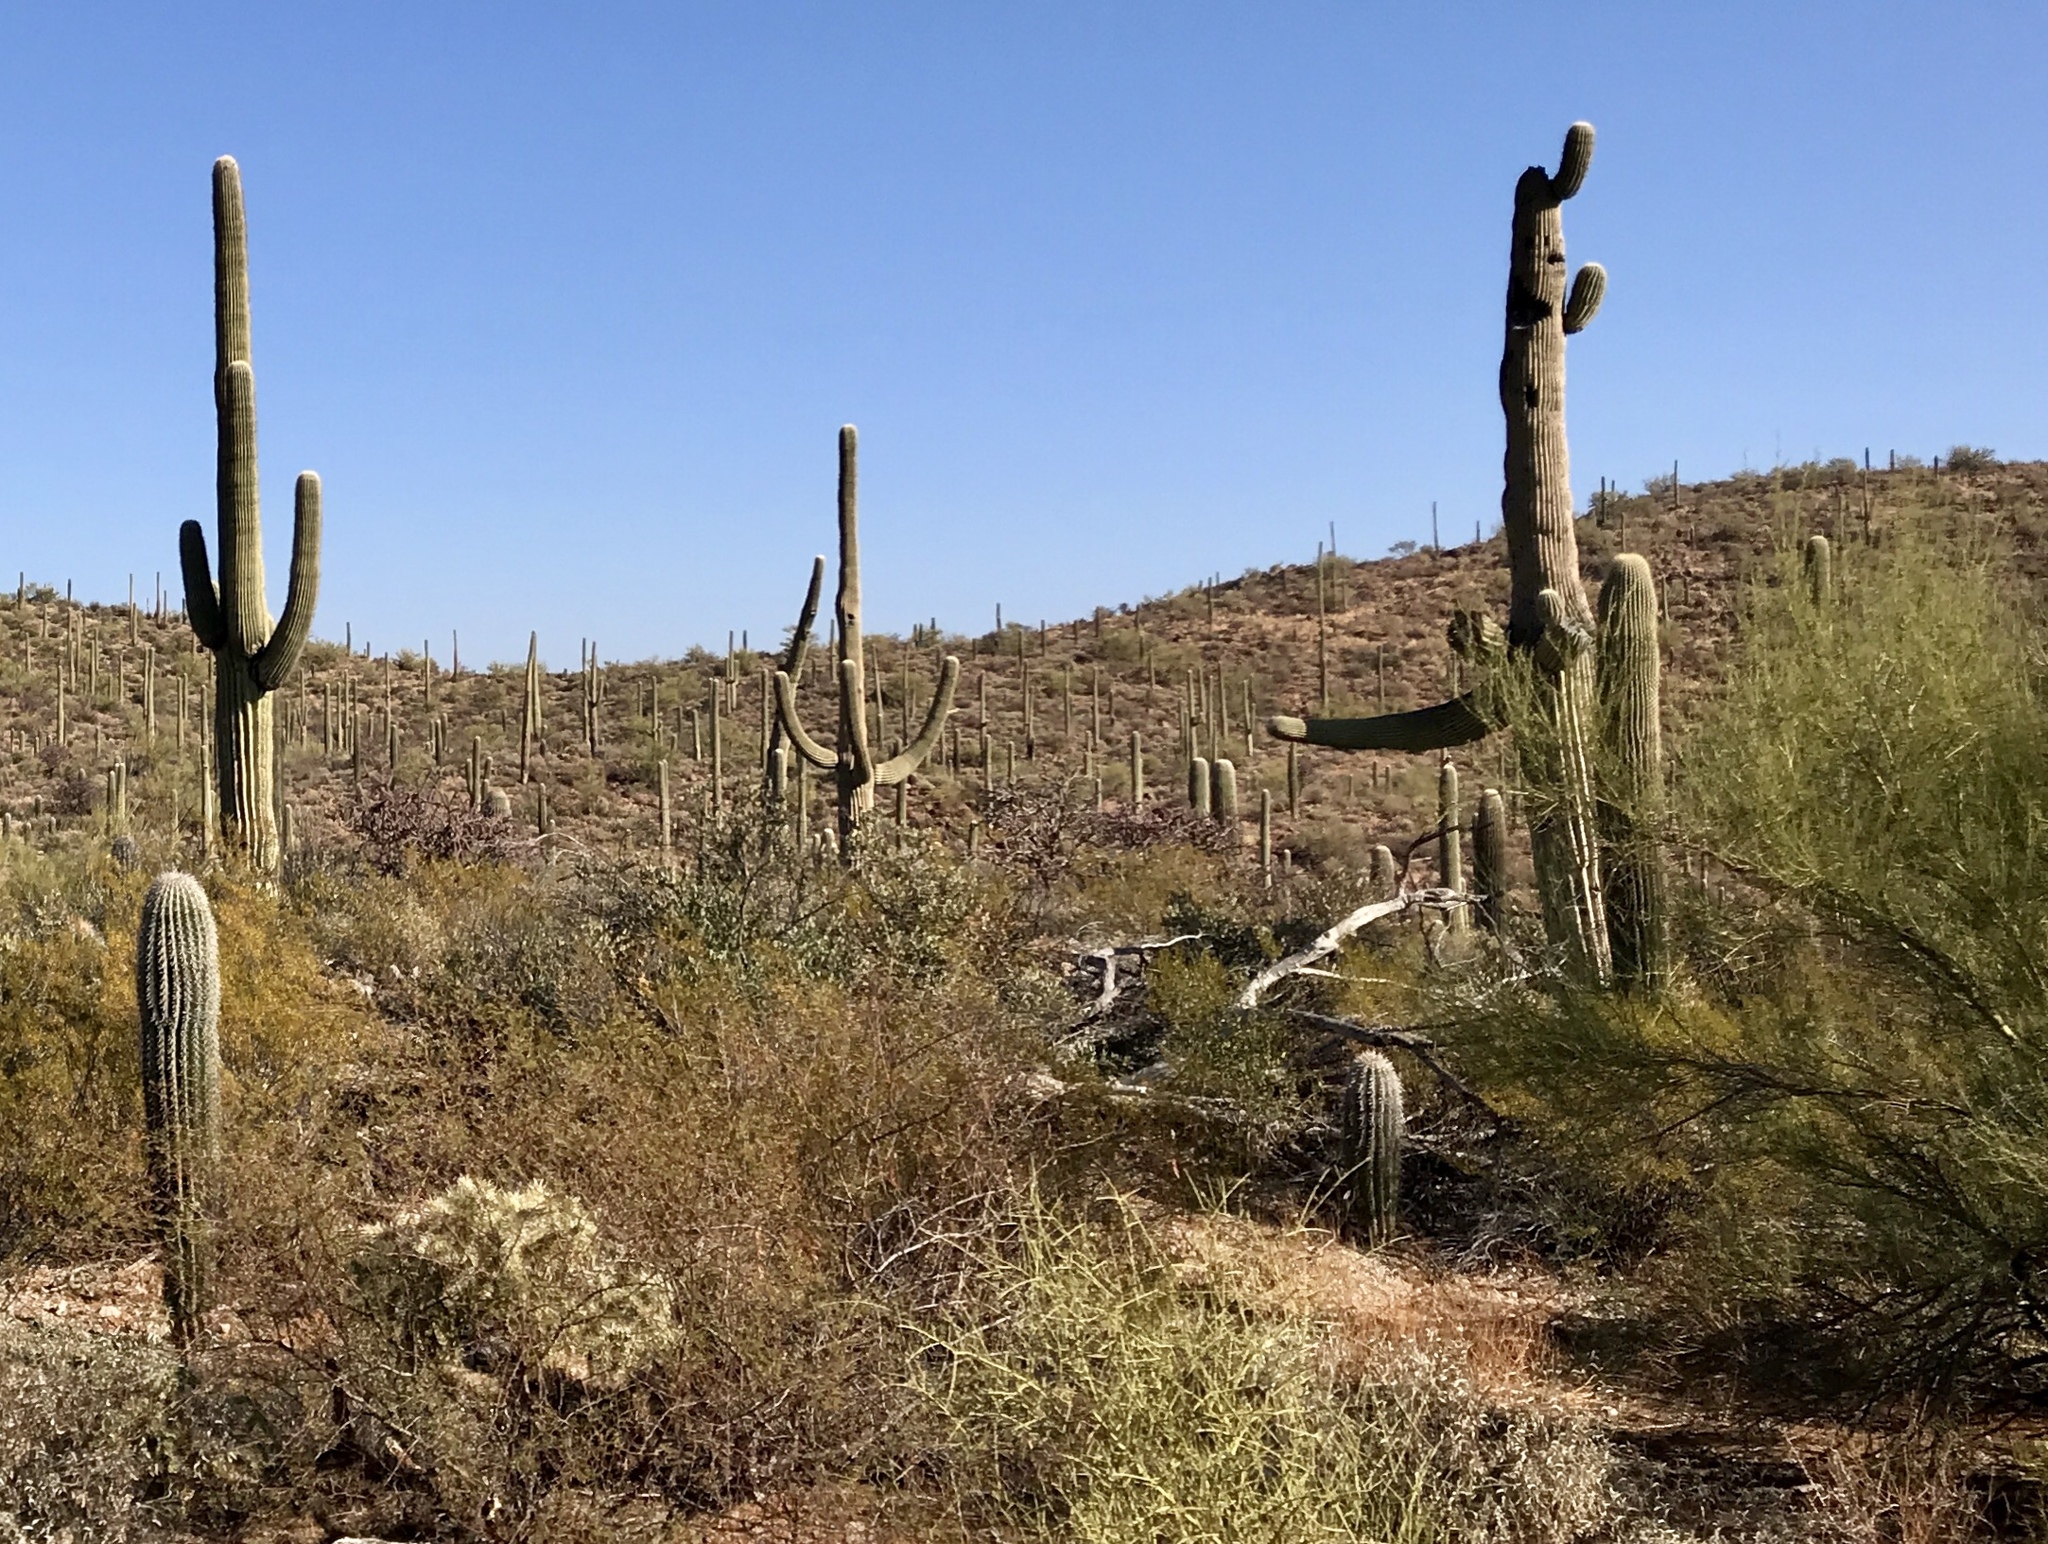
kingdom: Plantae
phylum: Tracheophyta
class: Magnoliopsida
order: Caryophyllales
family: Cactaceae
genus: Carnegiea
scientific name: Carnegiea gigantea
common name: Saguaro
